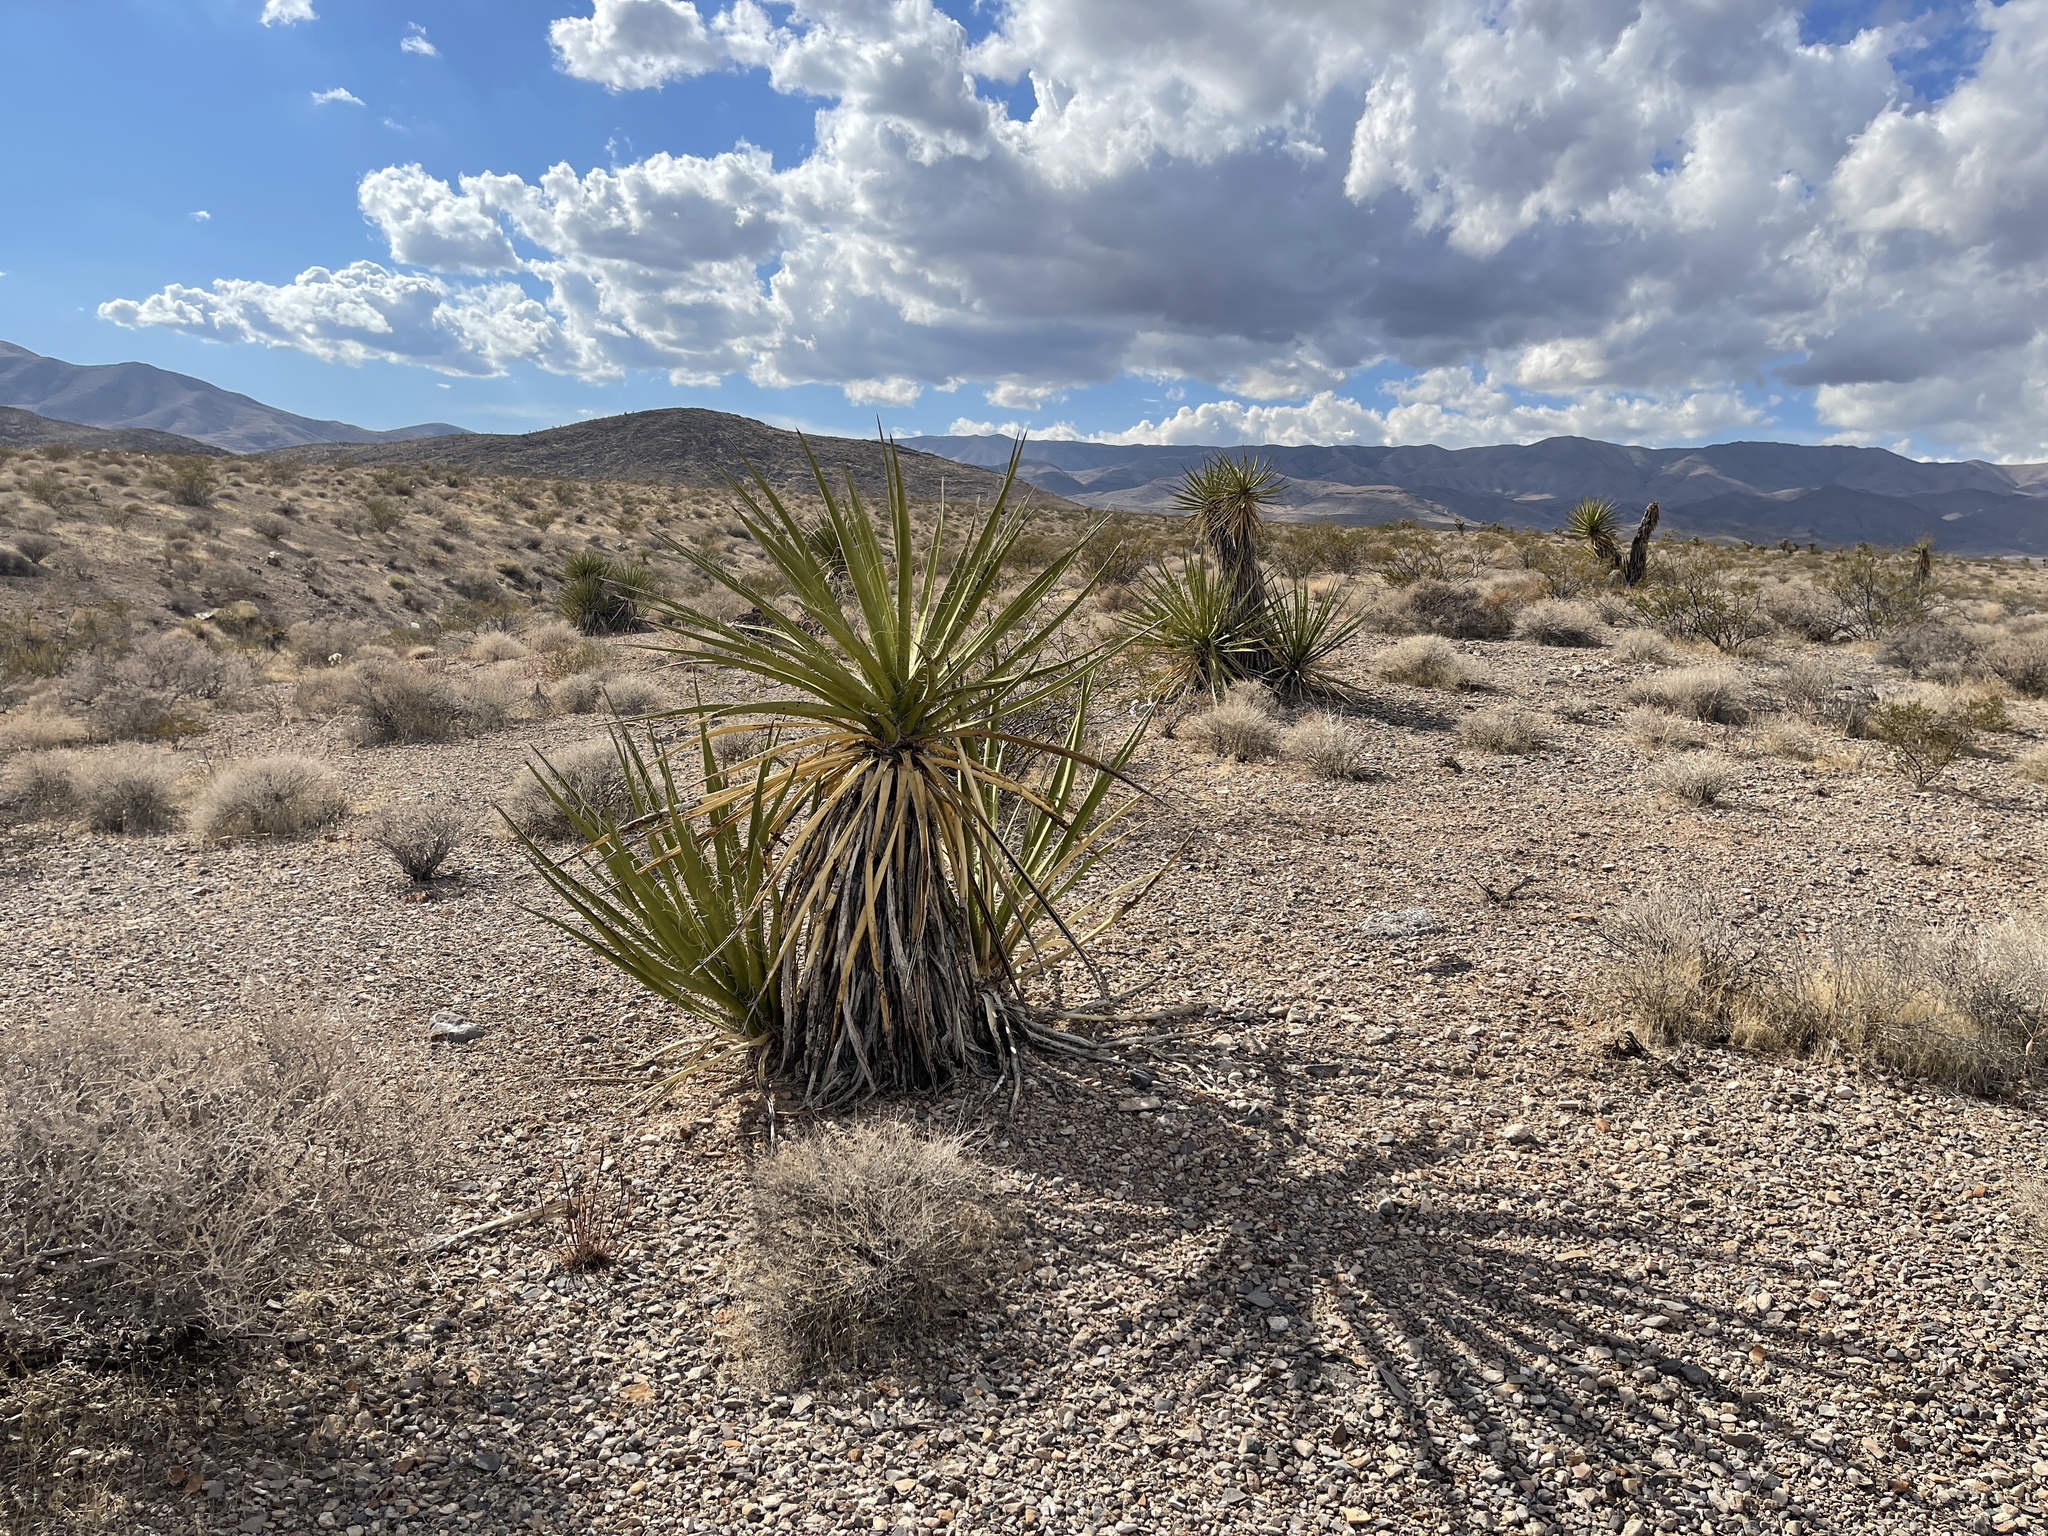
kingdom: Plantae
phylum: Tracheophyta
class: Liliopsida
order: Asparagales
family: Asparagaceae
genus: Yucca
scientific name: Yucca schidigera
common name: Mojave yucca
